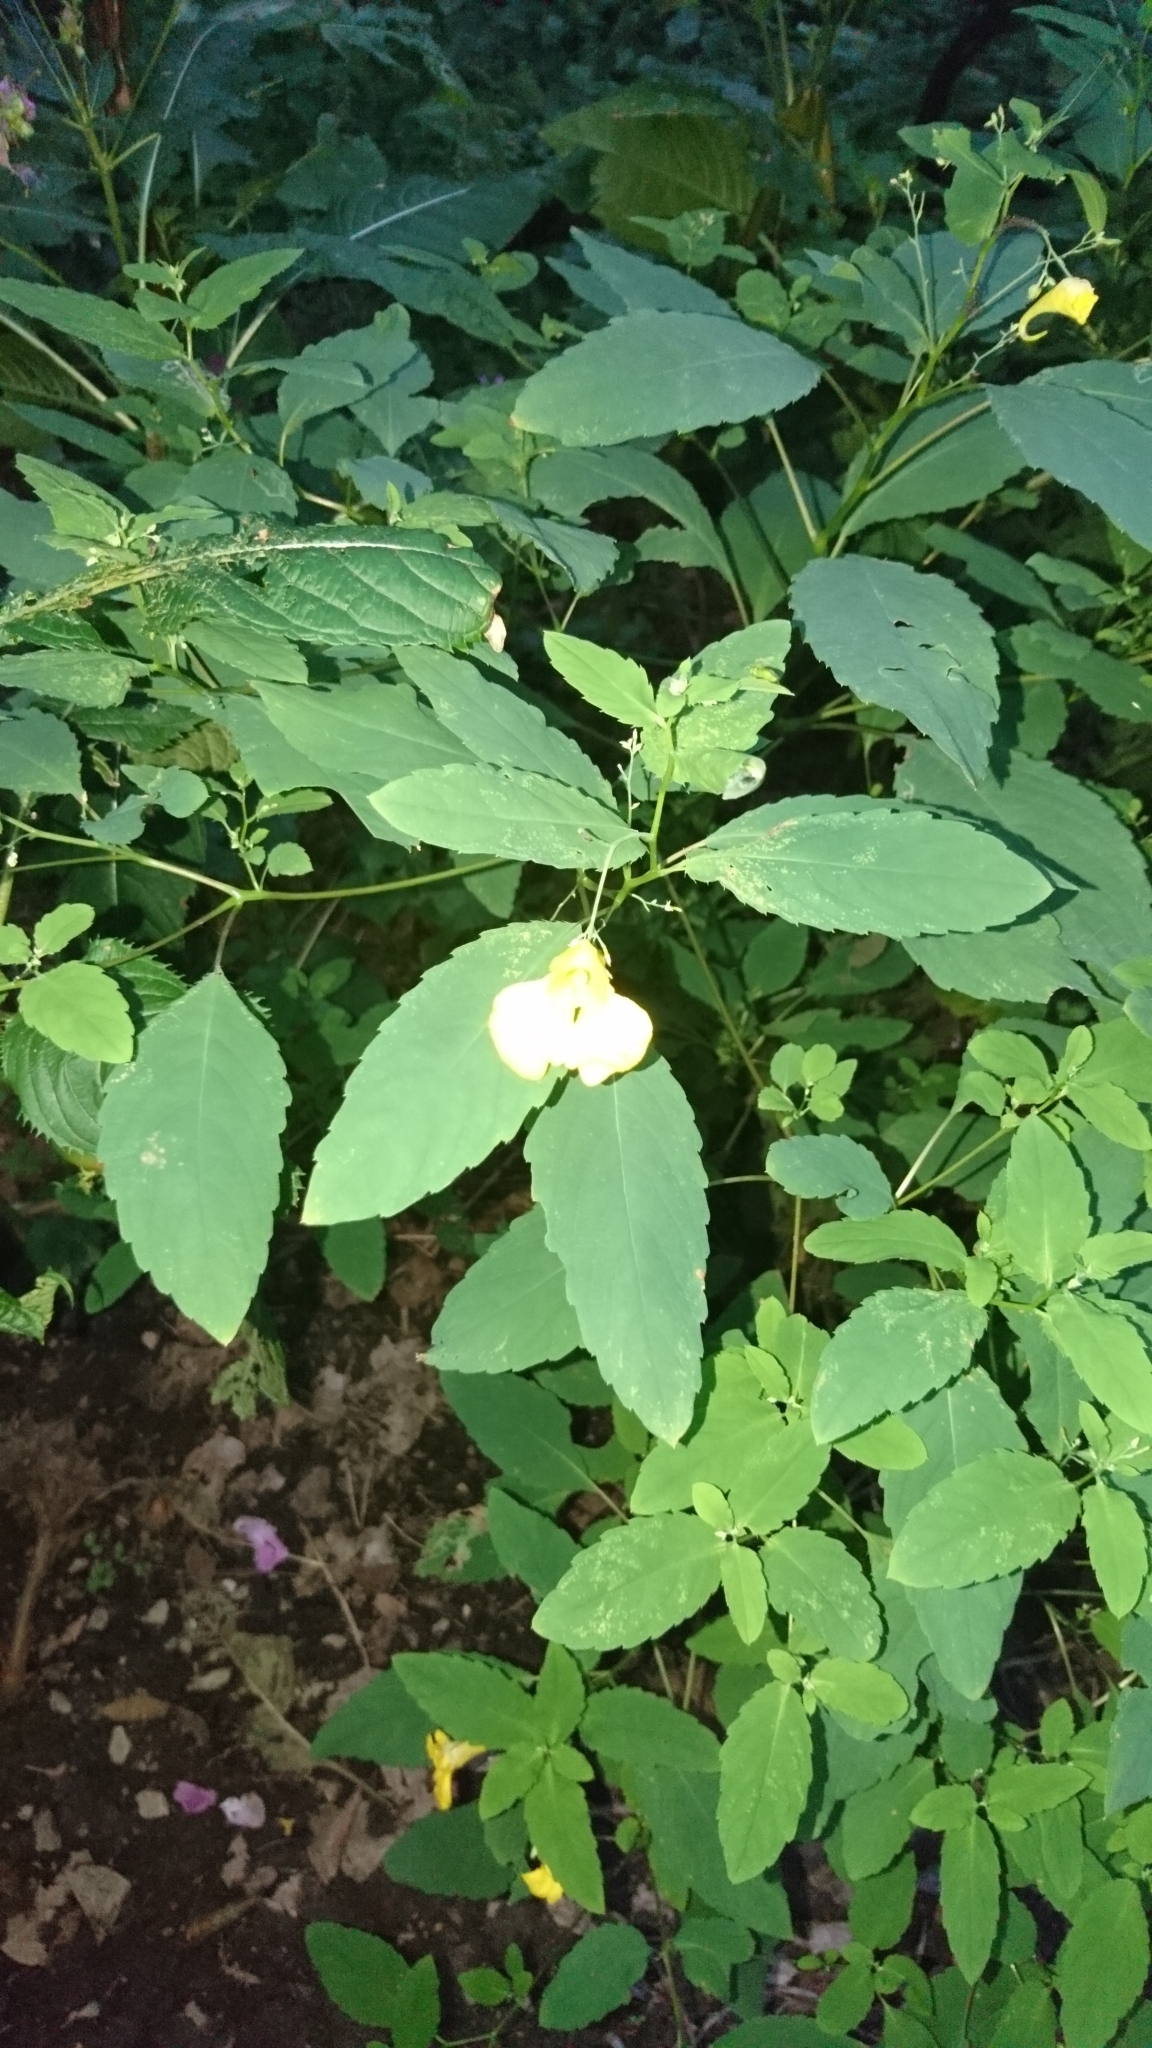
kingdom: Plantae
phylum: Tracheophyta
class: Magnoliopsida
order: Ericales
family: Balsaminaceae
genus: Impatiens
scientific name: Impatiens noli-tangere
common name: Touch-me-not balsam
